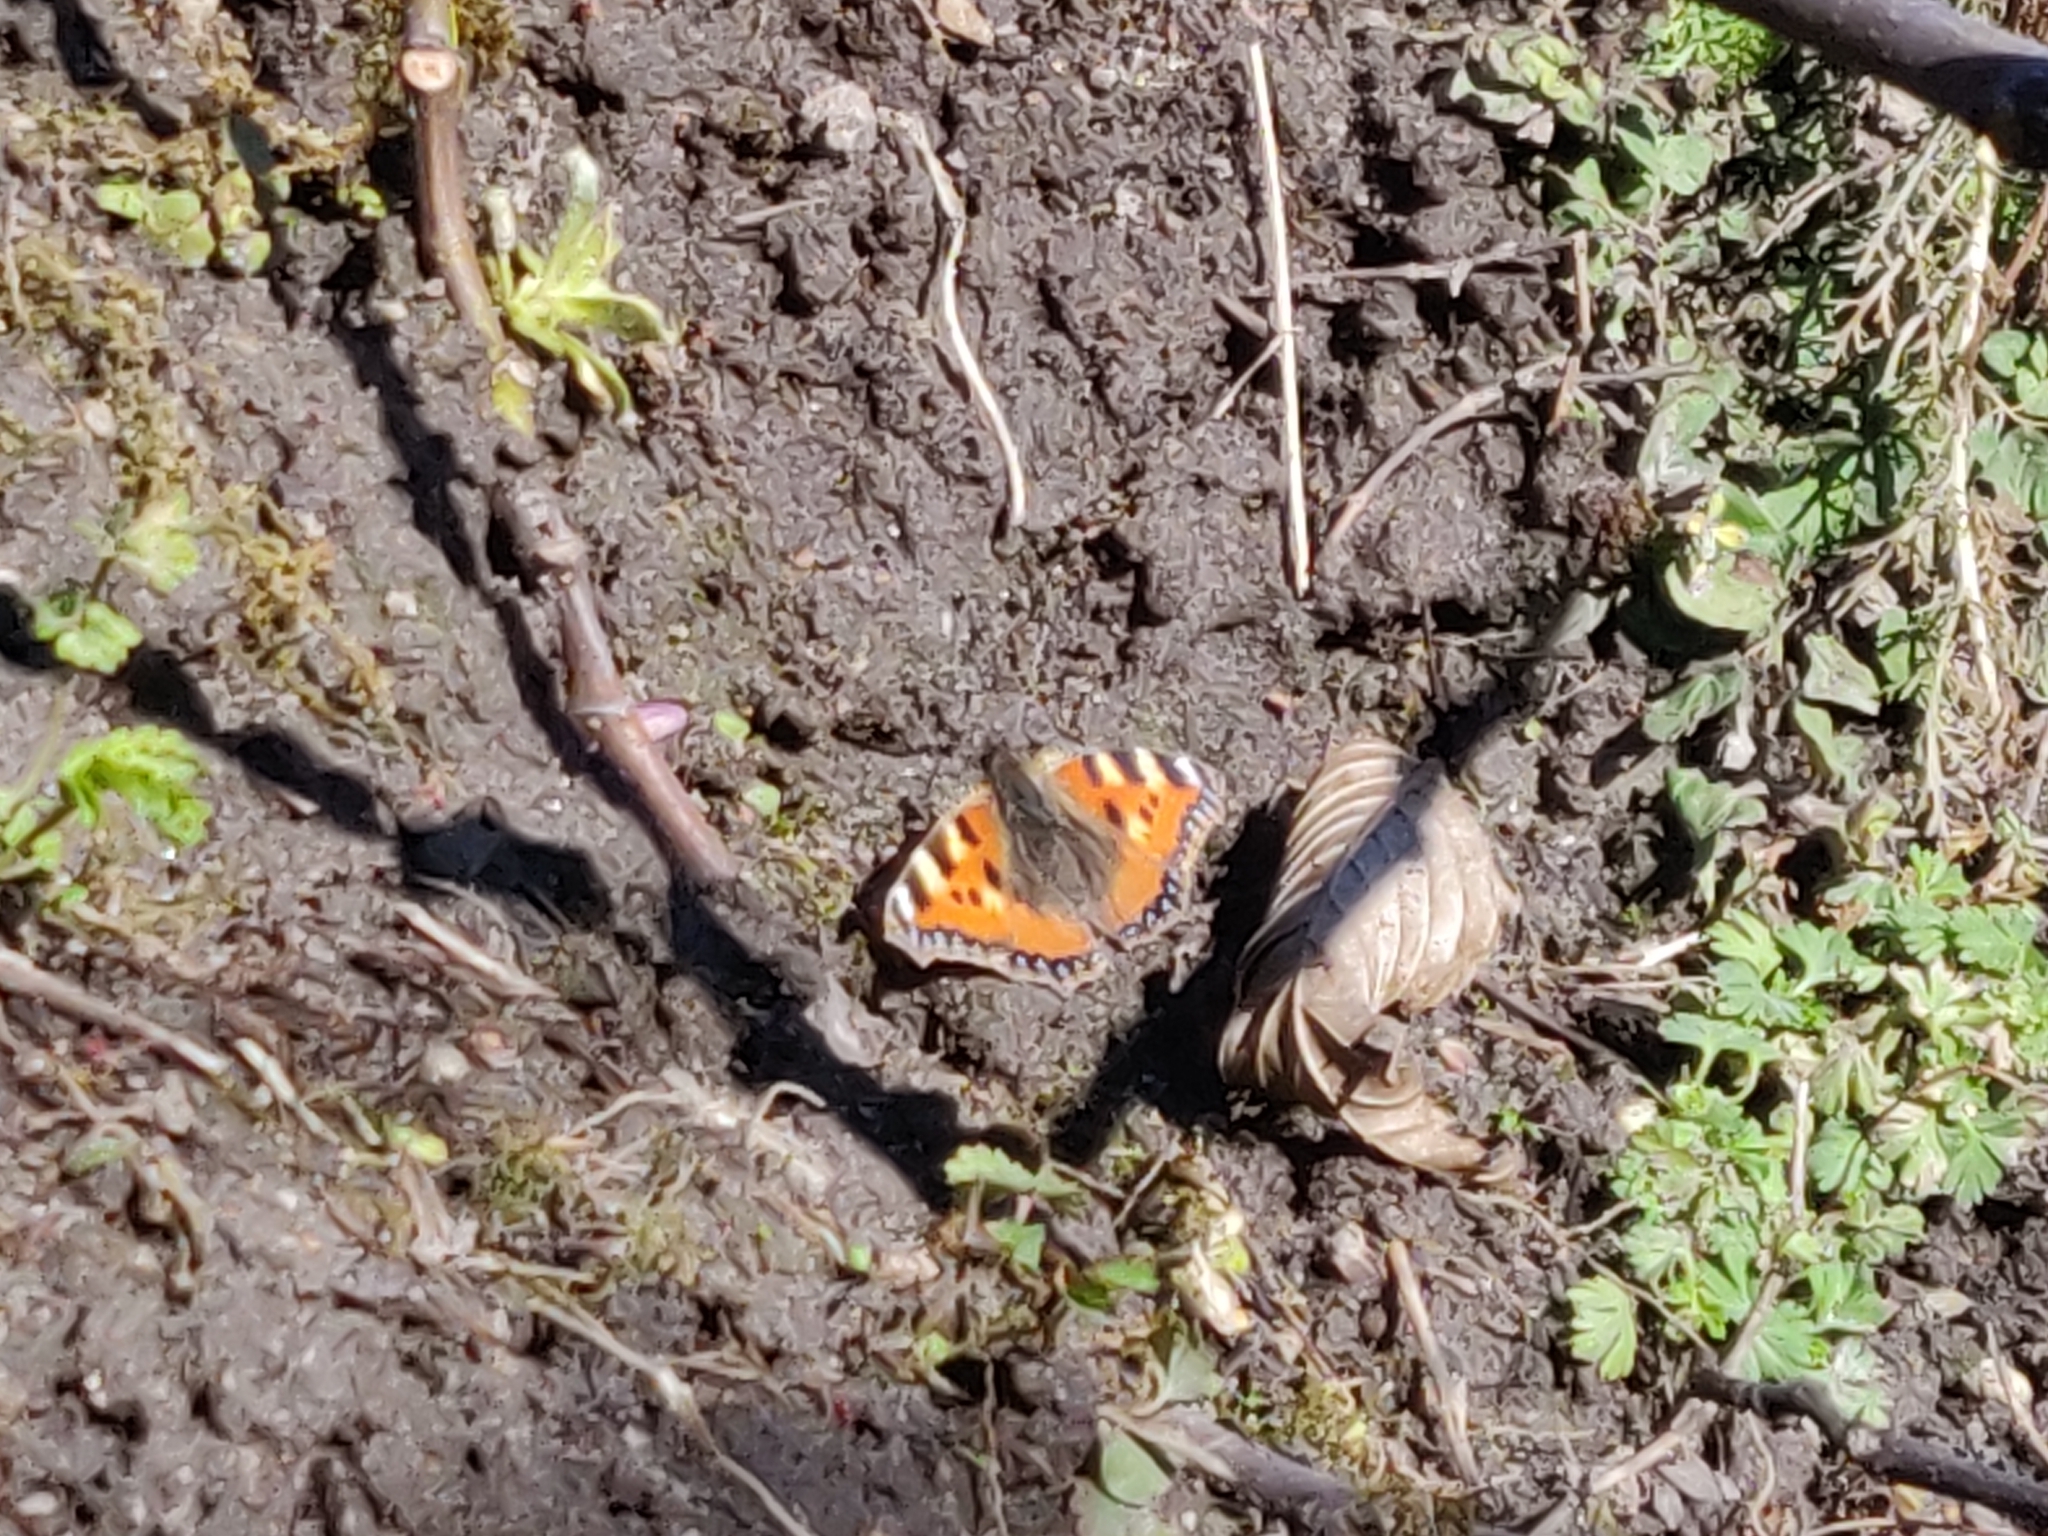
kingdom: Animalia
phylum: Arthropoda
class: Insecta
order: Lepidoptera
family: Nymphalidae
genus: Aglais
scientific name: Aglais urticae
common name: Small tortoiseshell
